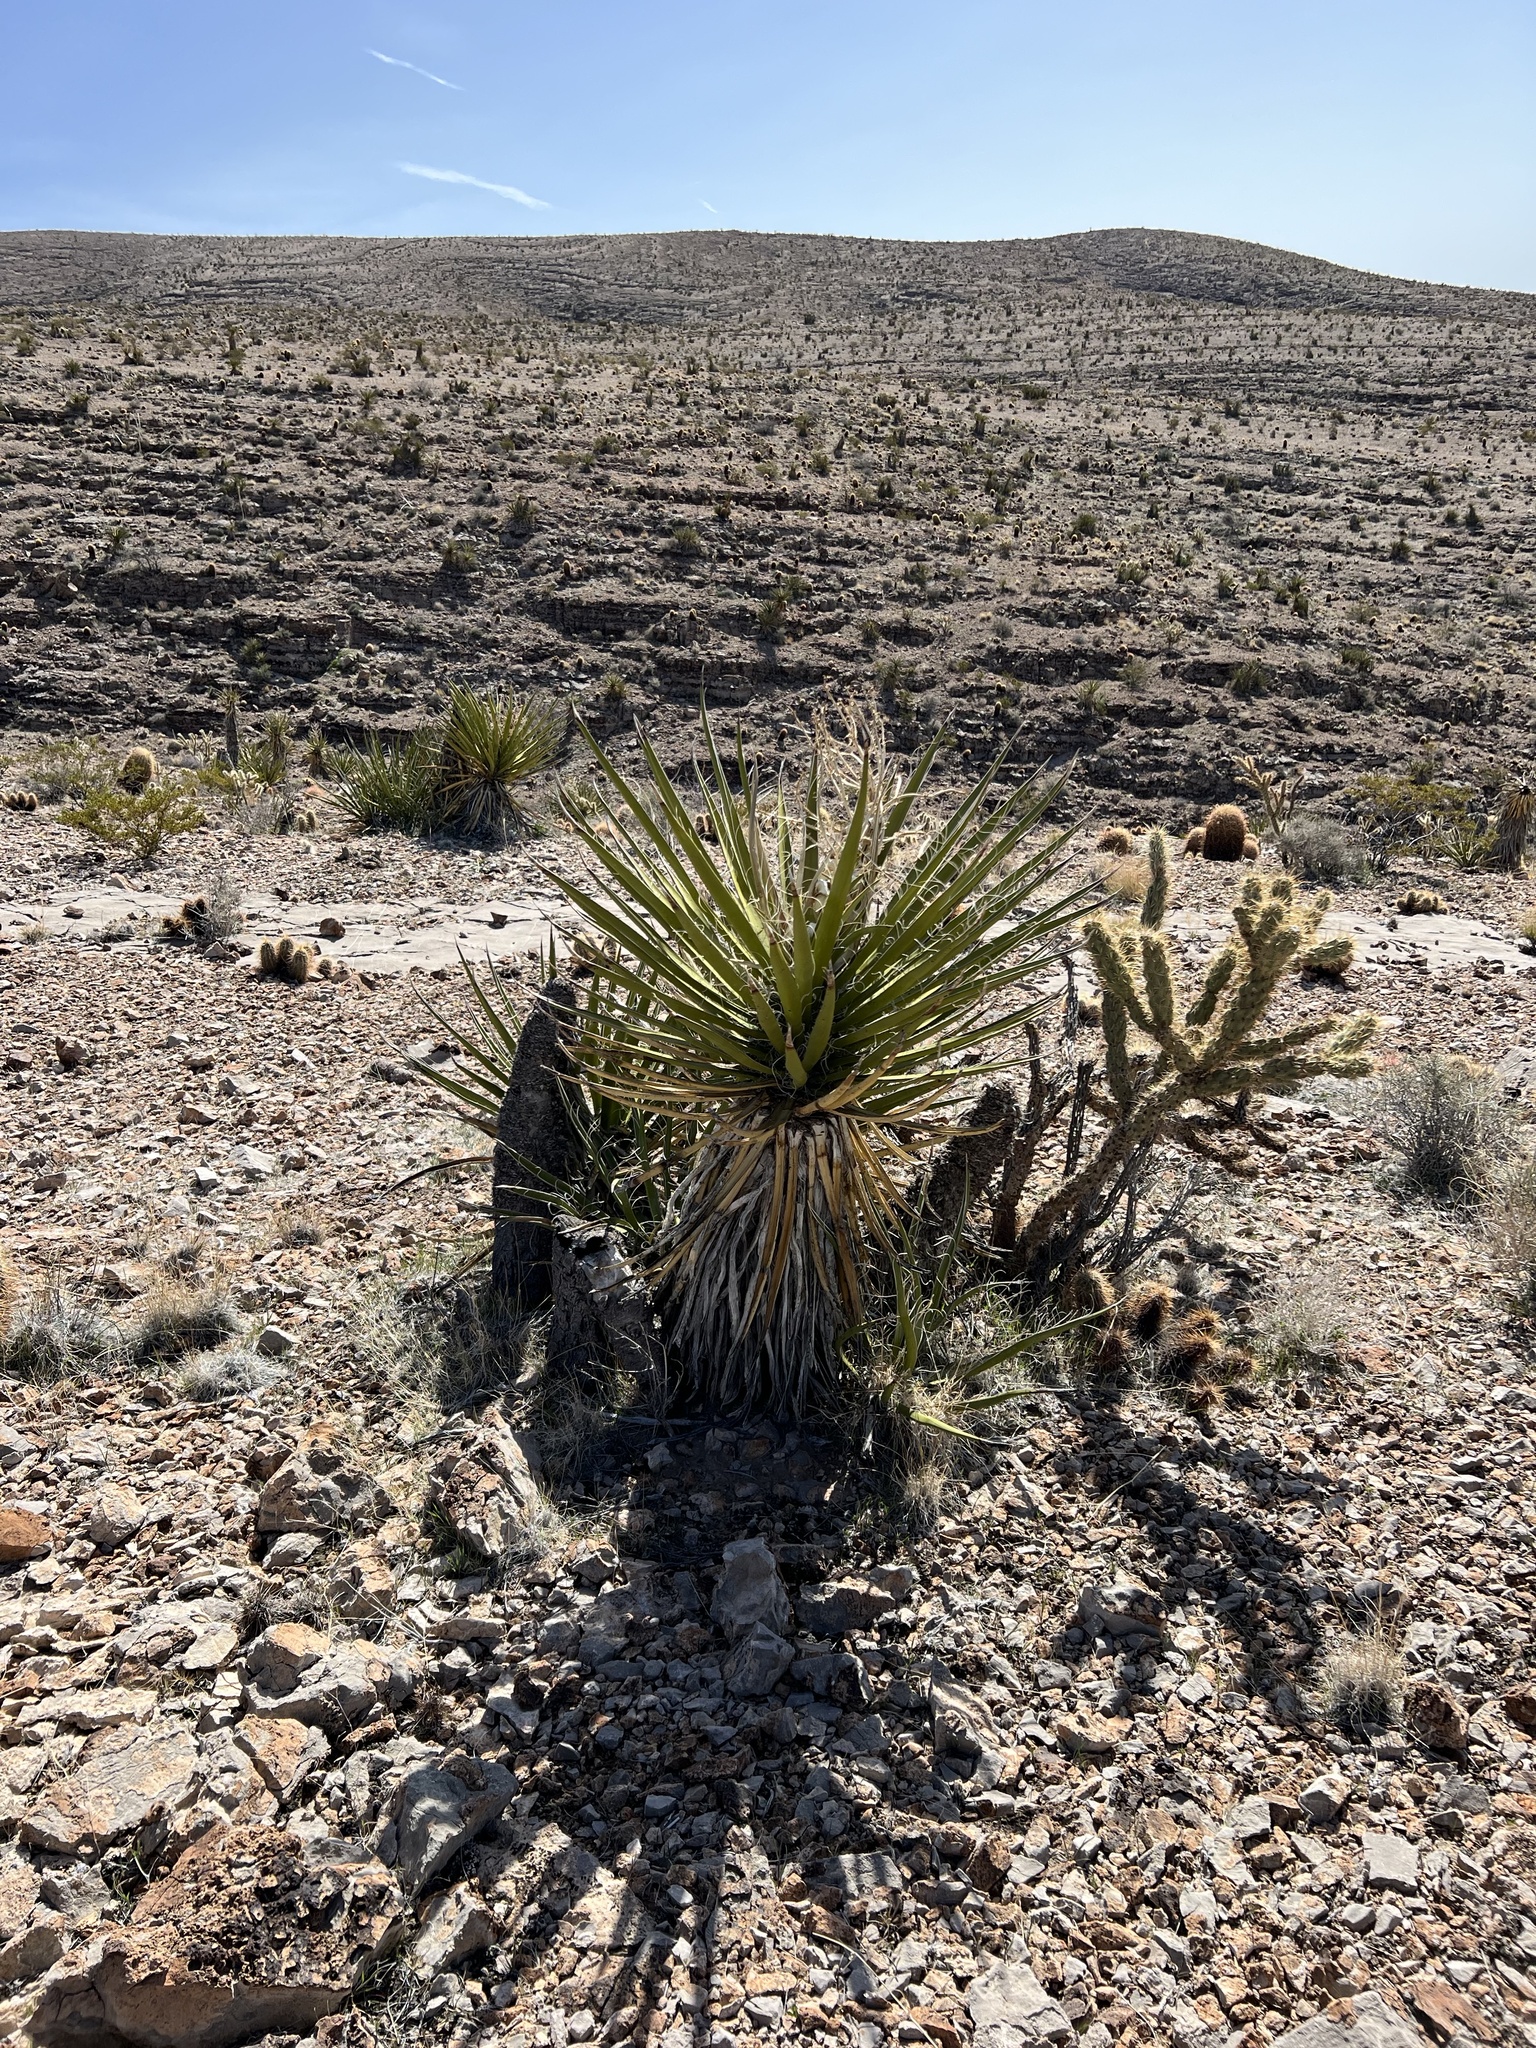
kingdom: Plantae
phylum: Tracheophyta
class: Liliopsida
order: Asparagales
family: Asparagaceae
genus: Yucca
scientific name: Yucca schidigera
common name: Mojave yucca
